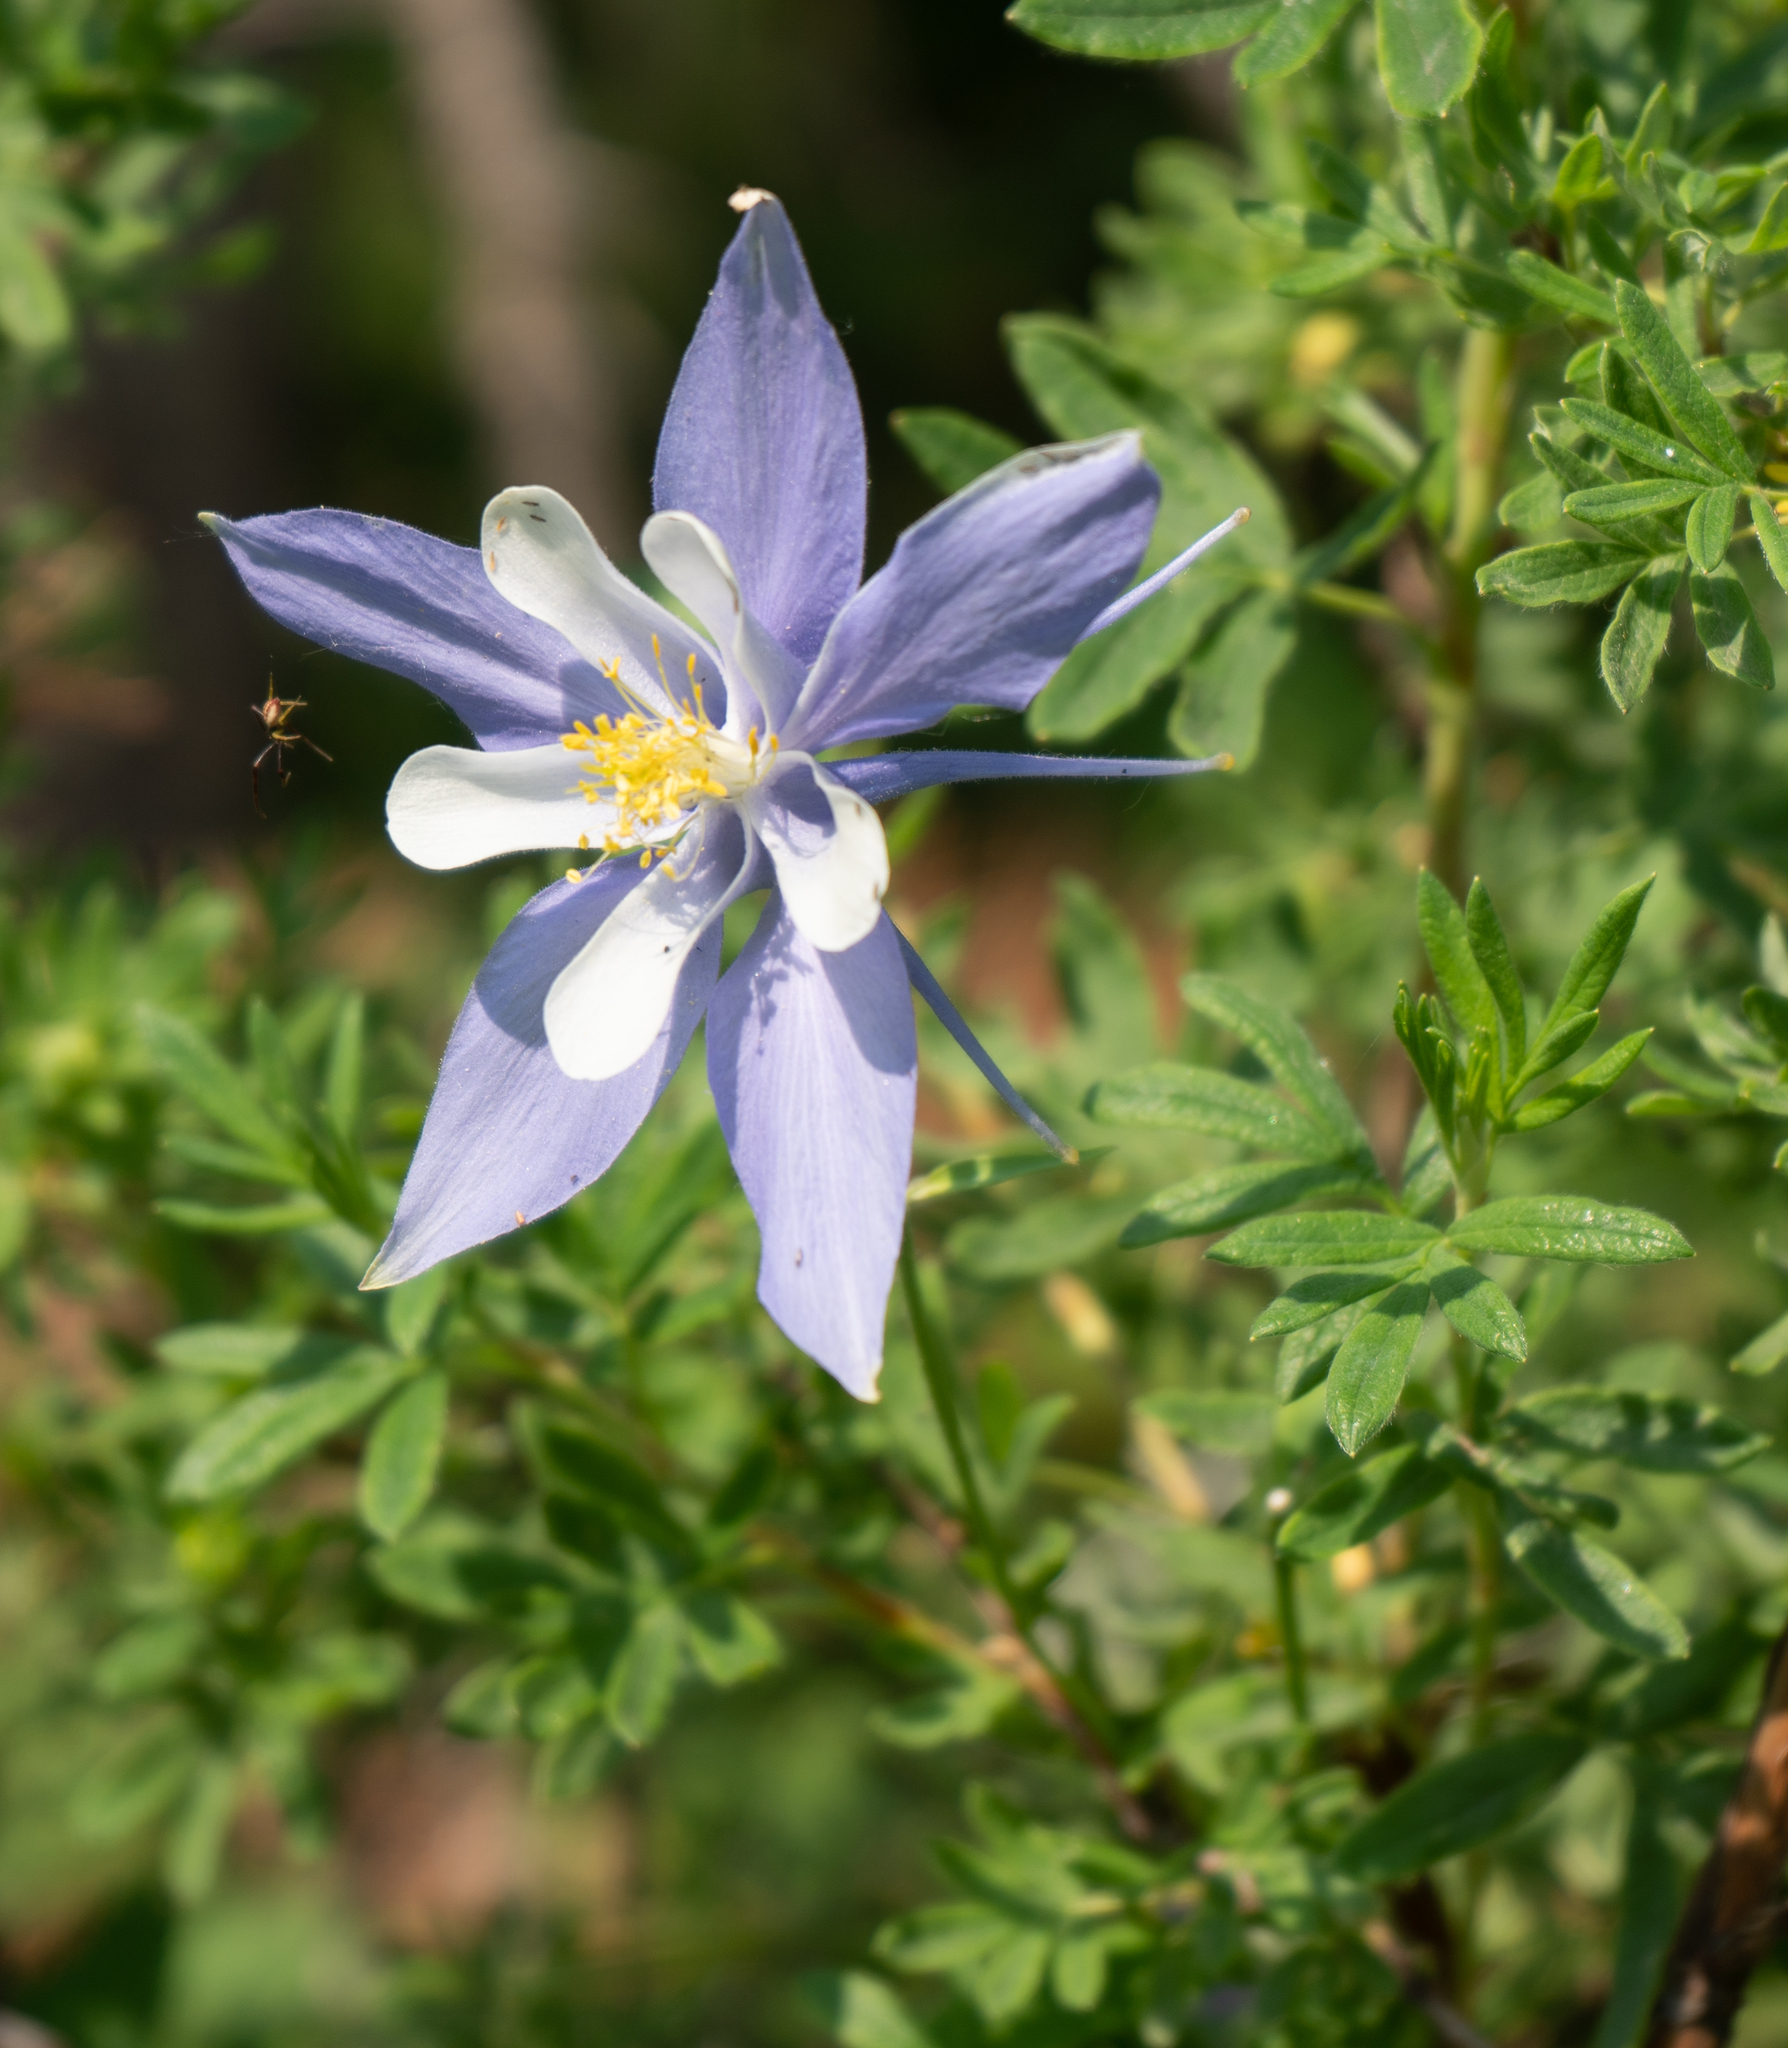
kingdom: Plantae
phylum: Tracheophyta
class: Magnoliopsida
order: Ranunculales
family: Ranunculaceae
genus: Aquilegia
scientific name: Aquilegia coerulea
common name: Rocky mountain columbine
